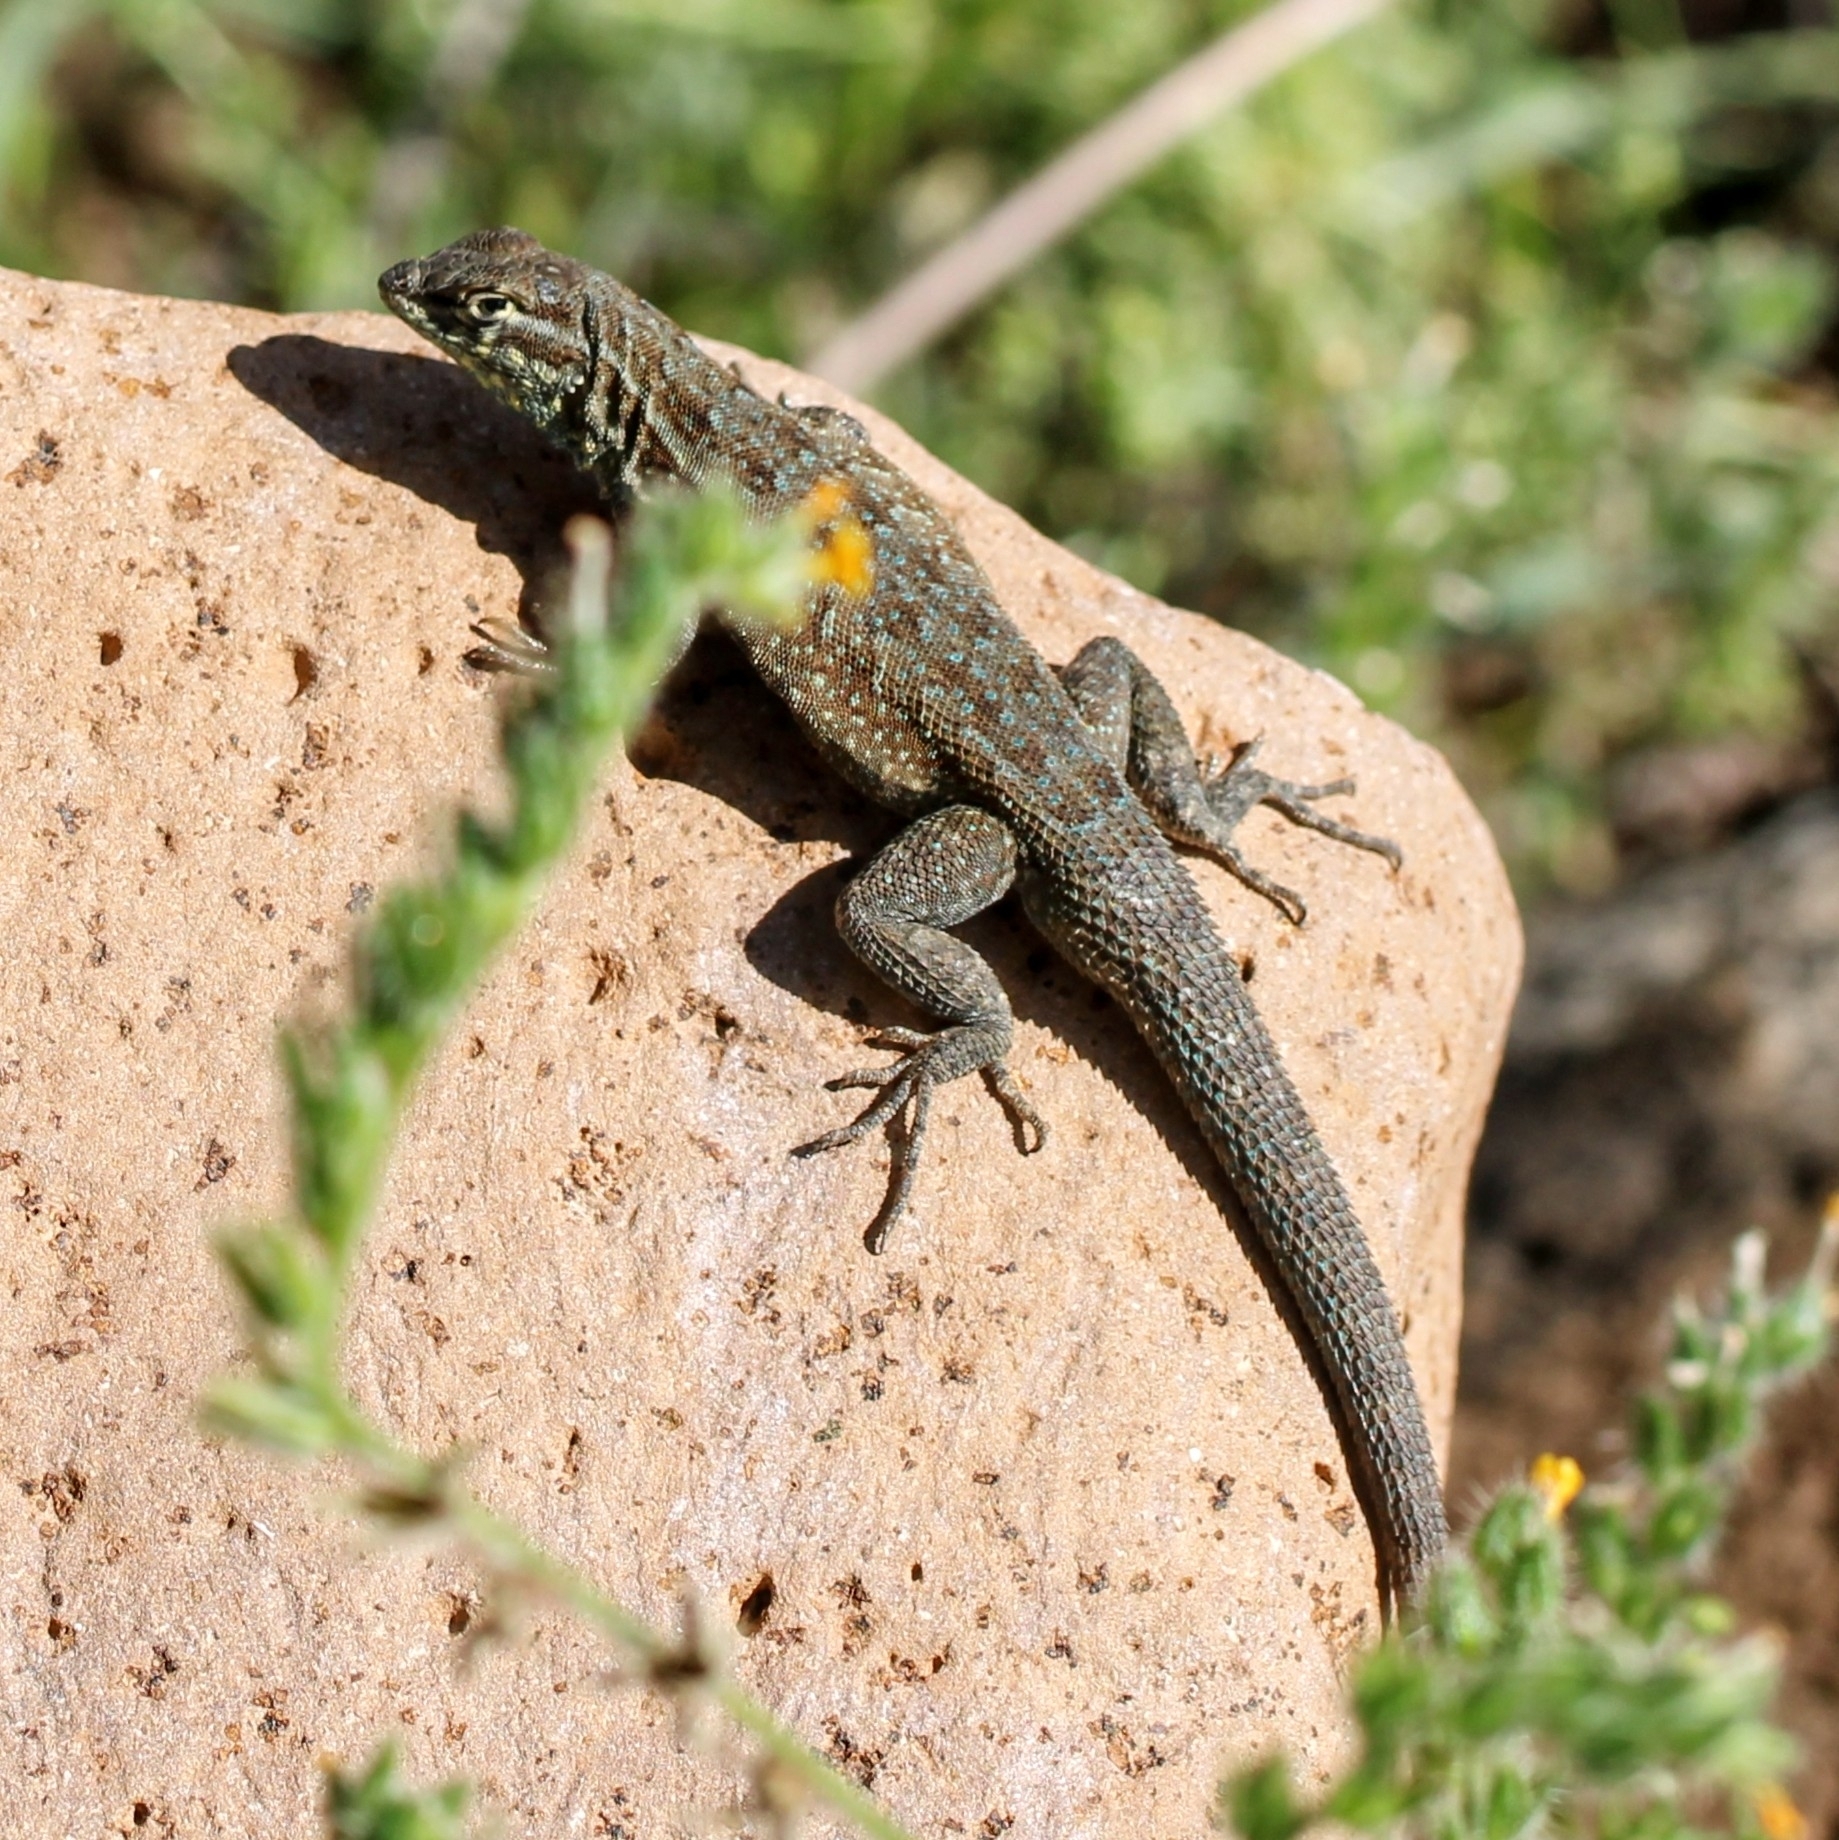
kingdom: Animalia
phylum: Chordata
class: Squamata
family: Phrynosomatidae
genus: Uta
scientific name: Uta stansburiana
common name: Side-blotched lizard
